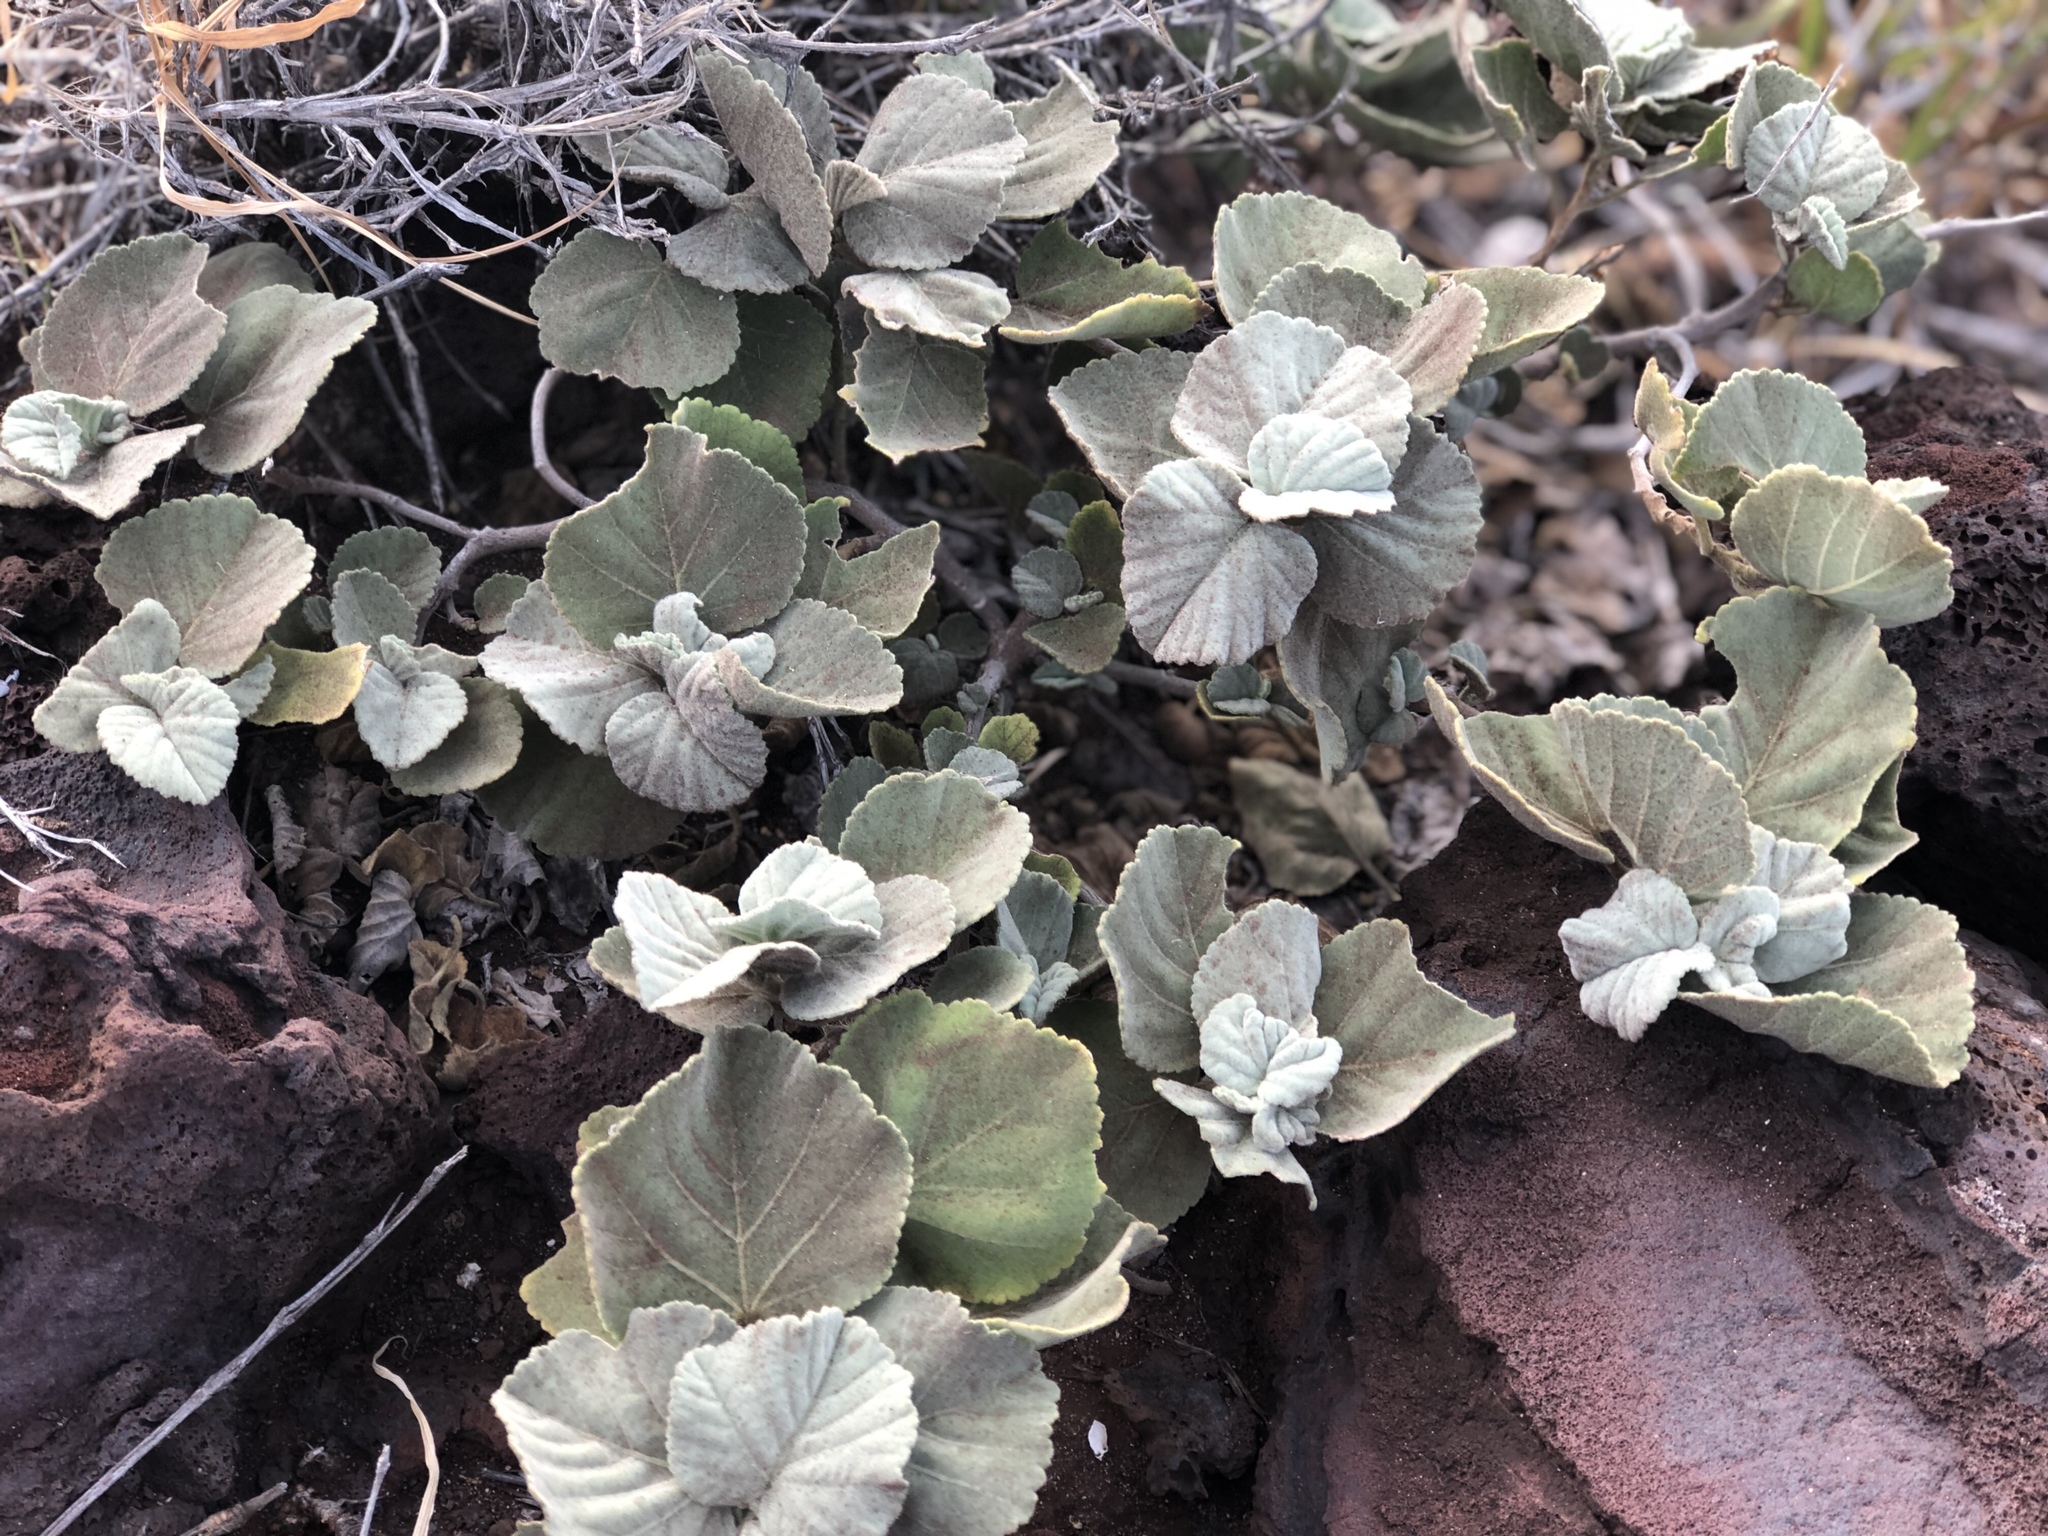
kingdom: Plantae
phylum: Tracheophyta
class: Magnoliopsida
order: Malvales
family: Malvaceae
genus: Sida
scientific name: Sida fallax
